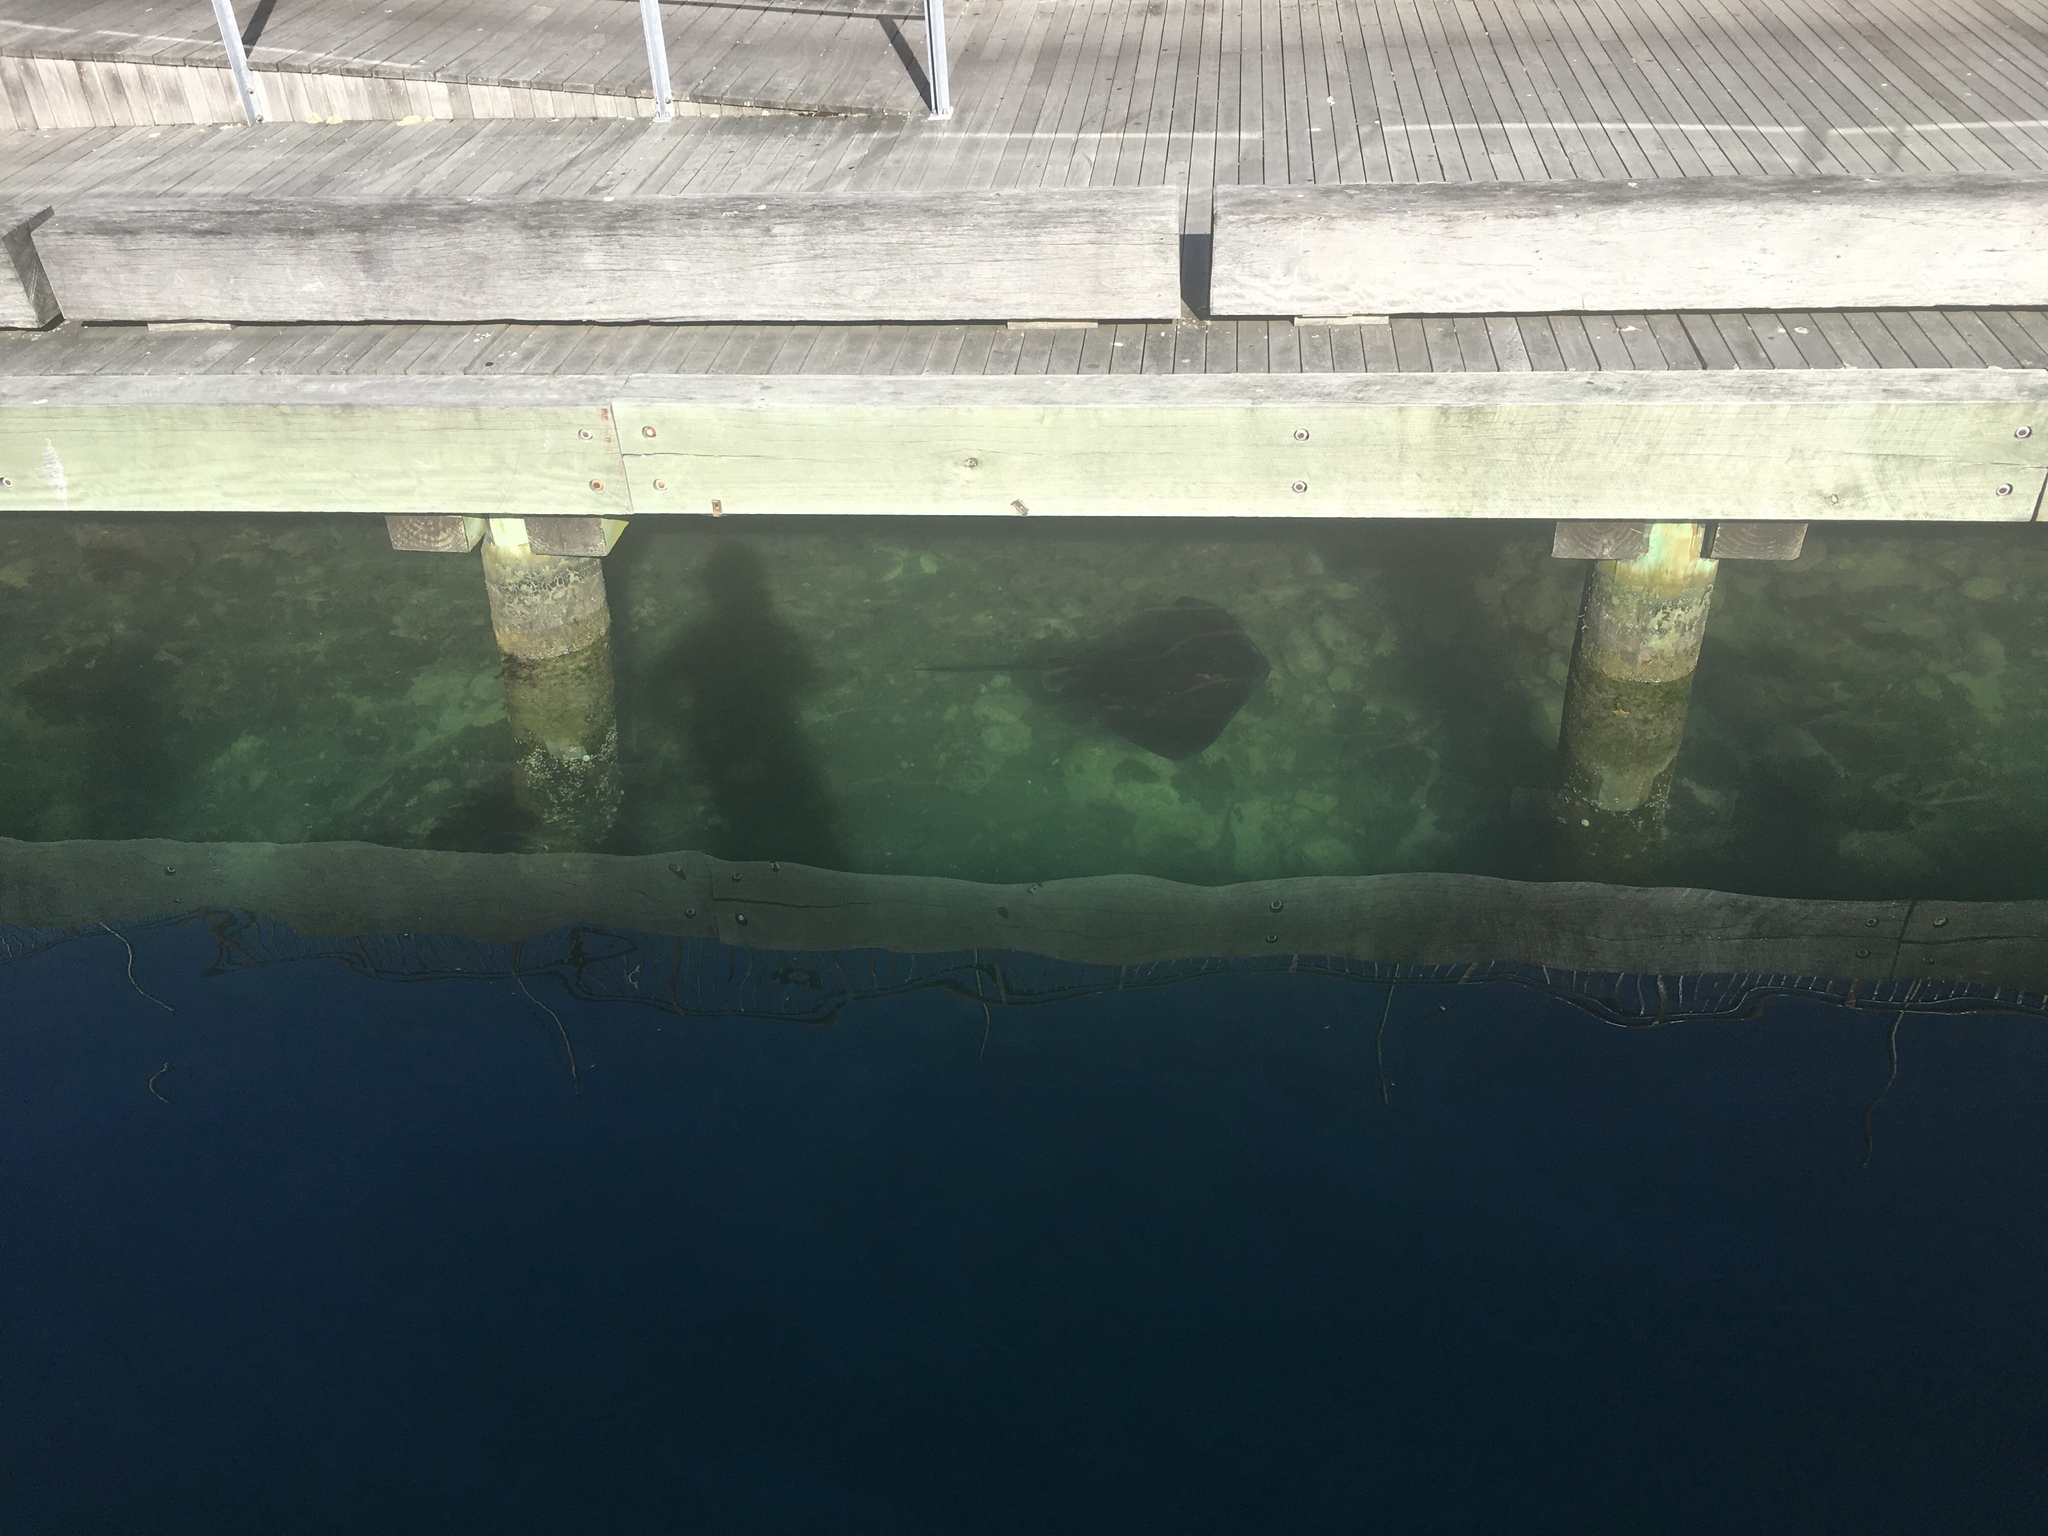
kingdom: Animalia
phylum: Chordata
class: Elasmobranchii
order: Myliobatiformes
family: Dasyatidae
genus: Bathytoshia
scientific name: Bathytoshia brevicaudata
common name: Short-tail stingray
